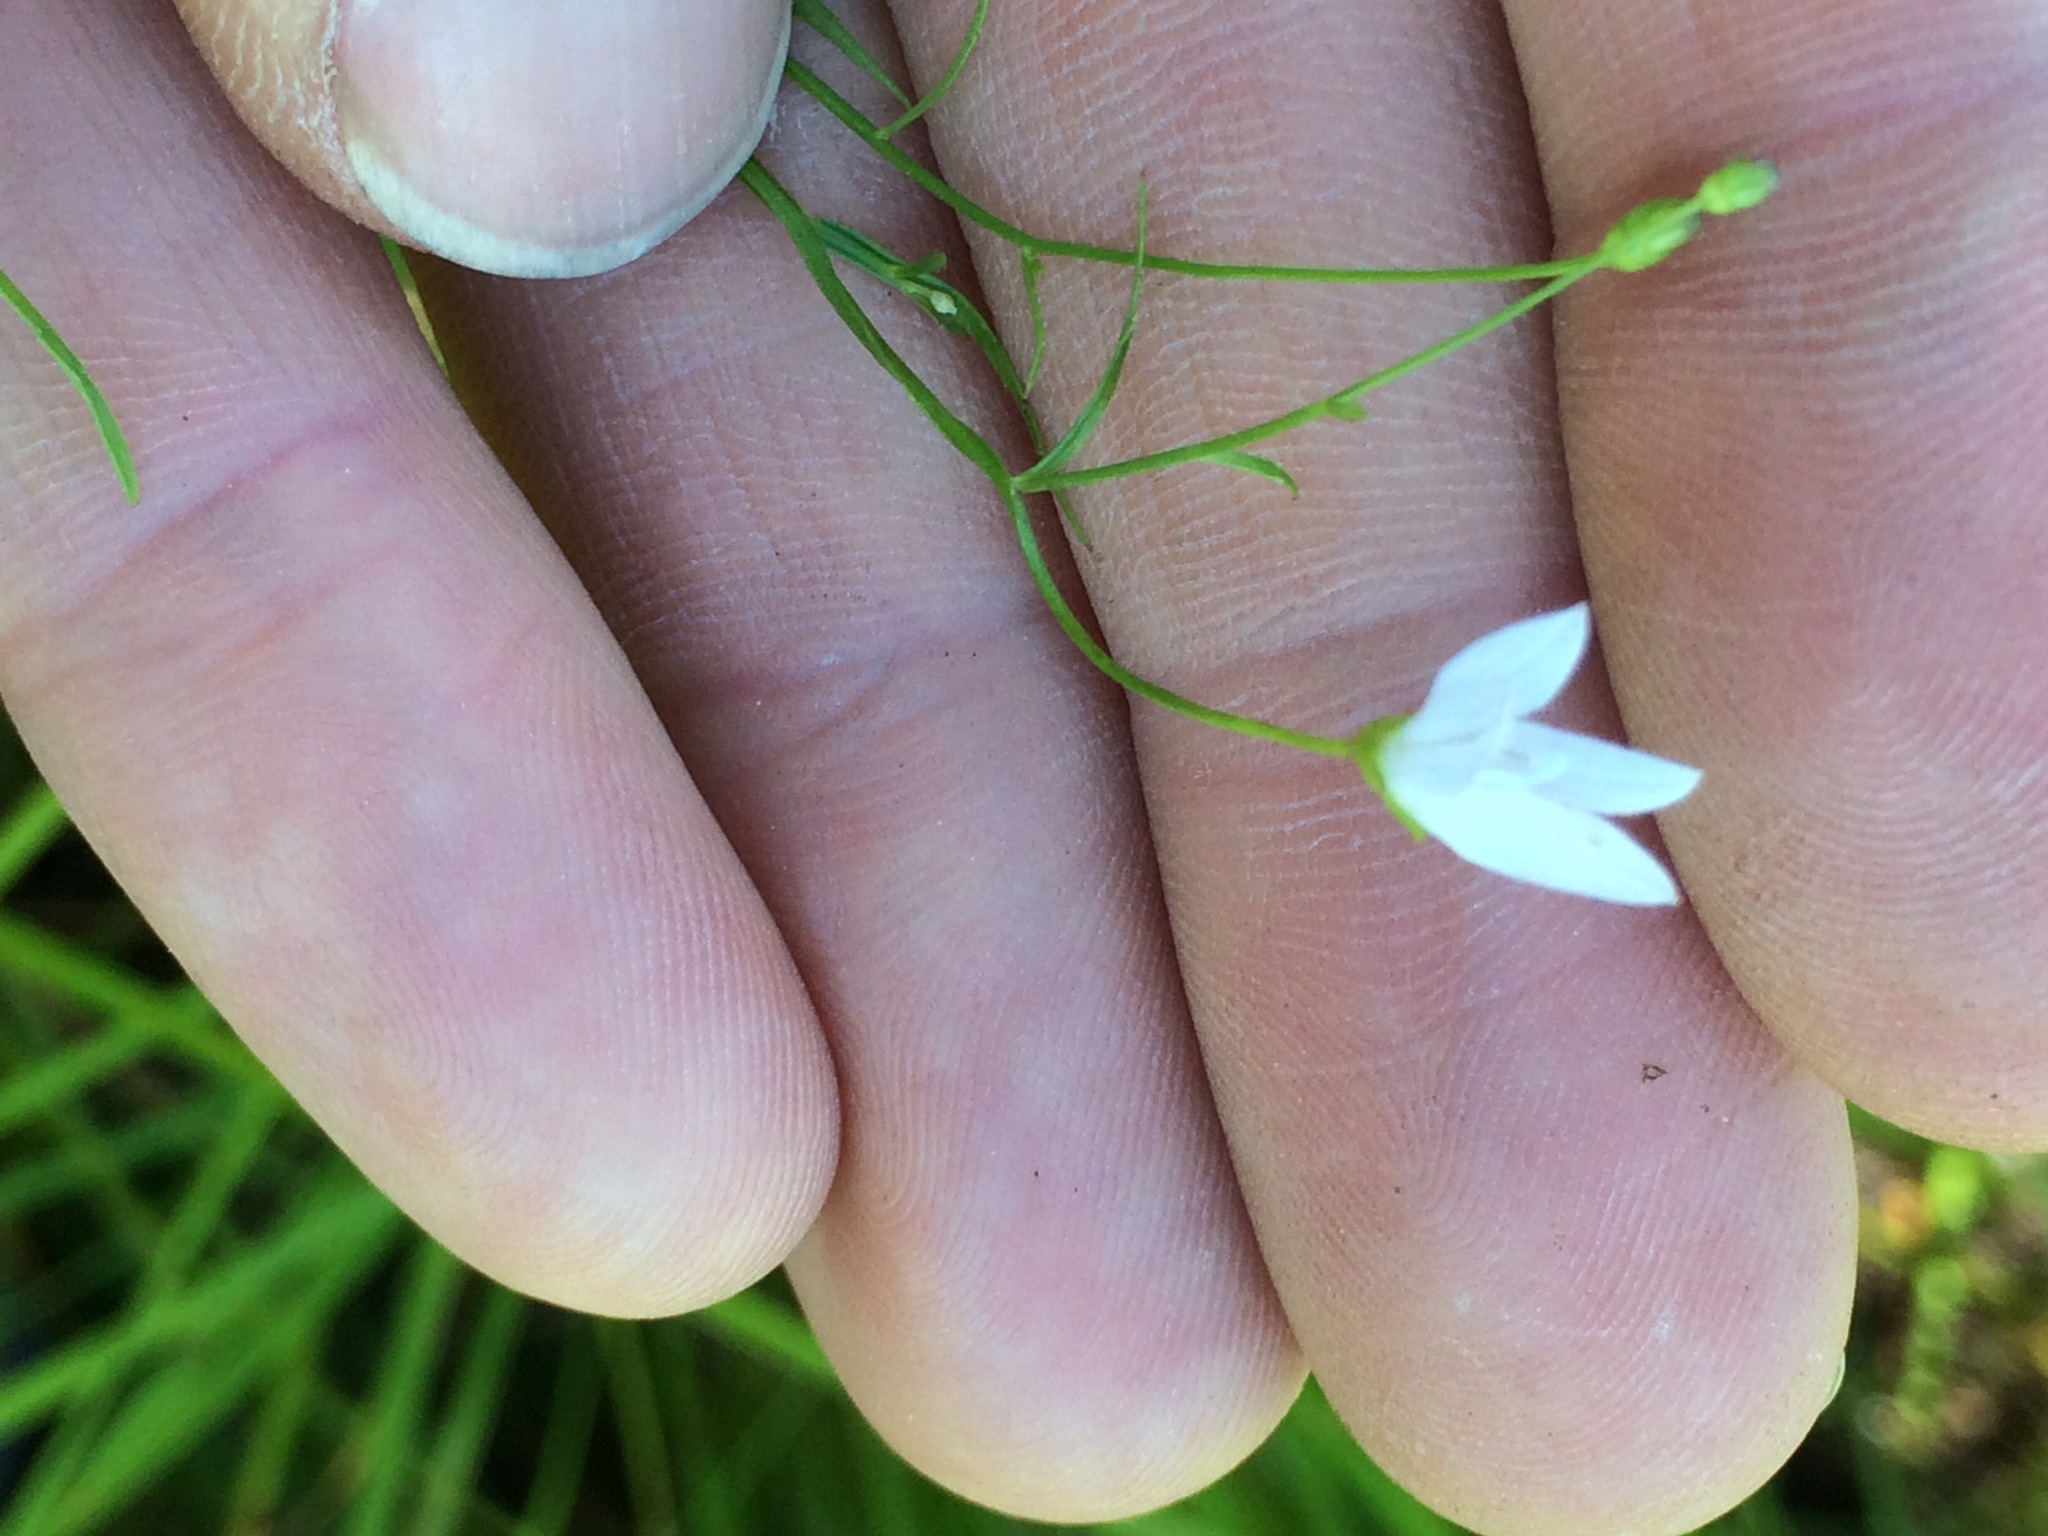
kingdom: Plantae
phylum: Tracheophyta
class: Magnoliopsida
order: Asterales
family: Campanulaceae
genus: Palustricodon
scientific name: Palustricodon aparinoides
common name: Bedstraw bellflower
